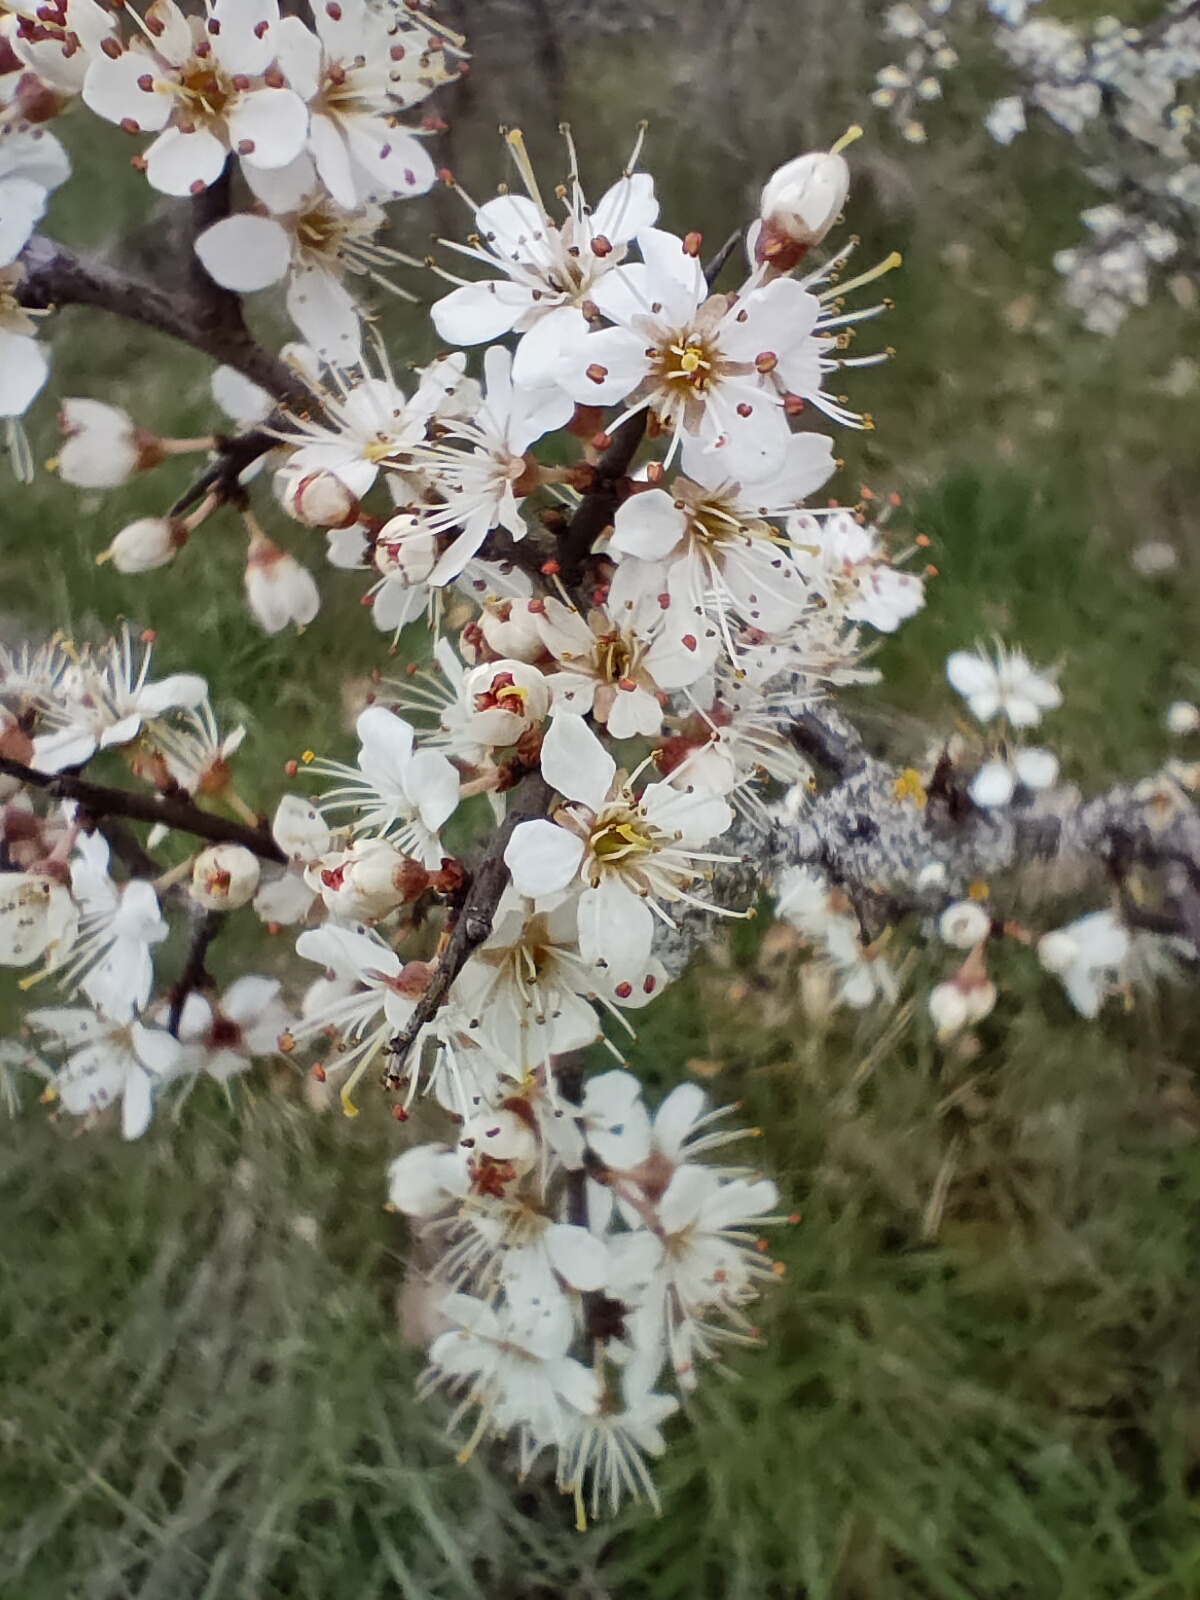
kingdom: Plantae
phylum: Tracheophyta
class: Magnoliopsida
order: Rosales
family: Rosaceae
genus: Prunus
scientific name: Prunus spinosa
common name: Blackthorn
